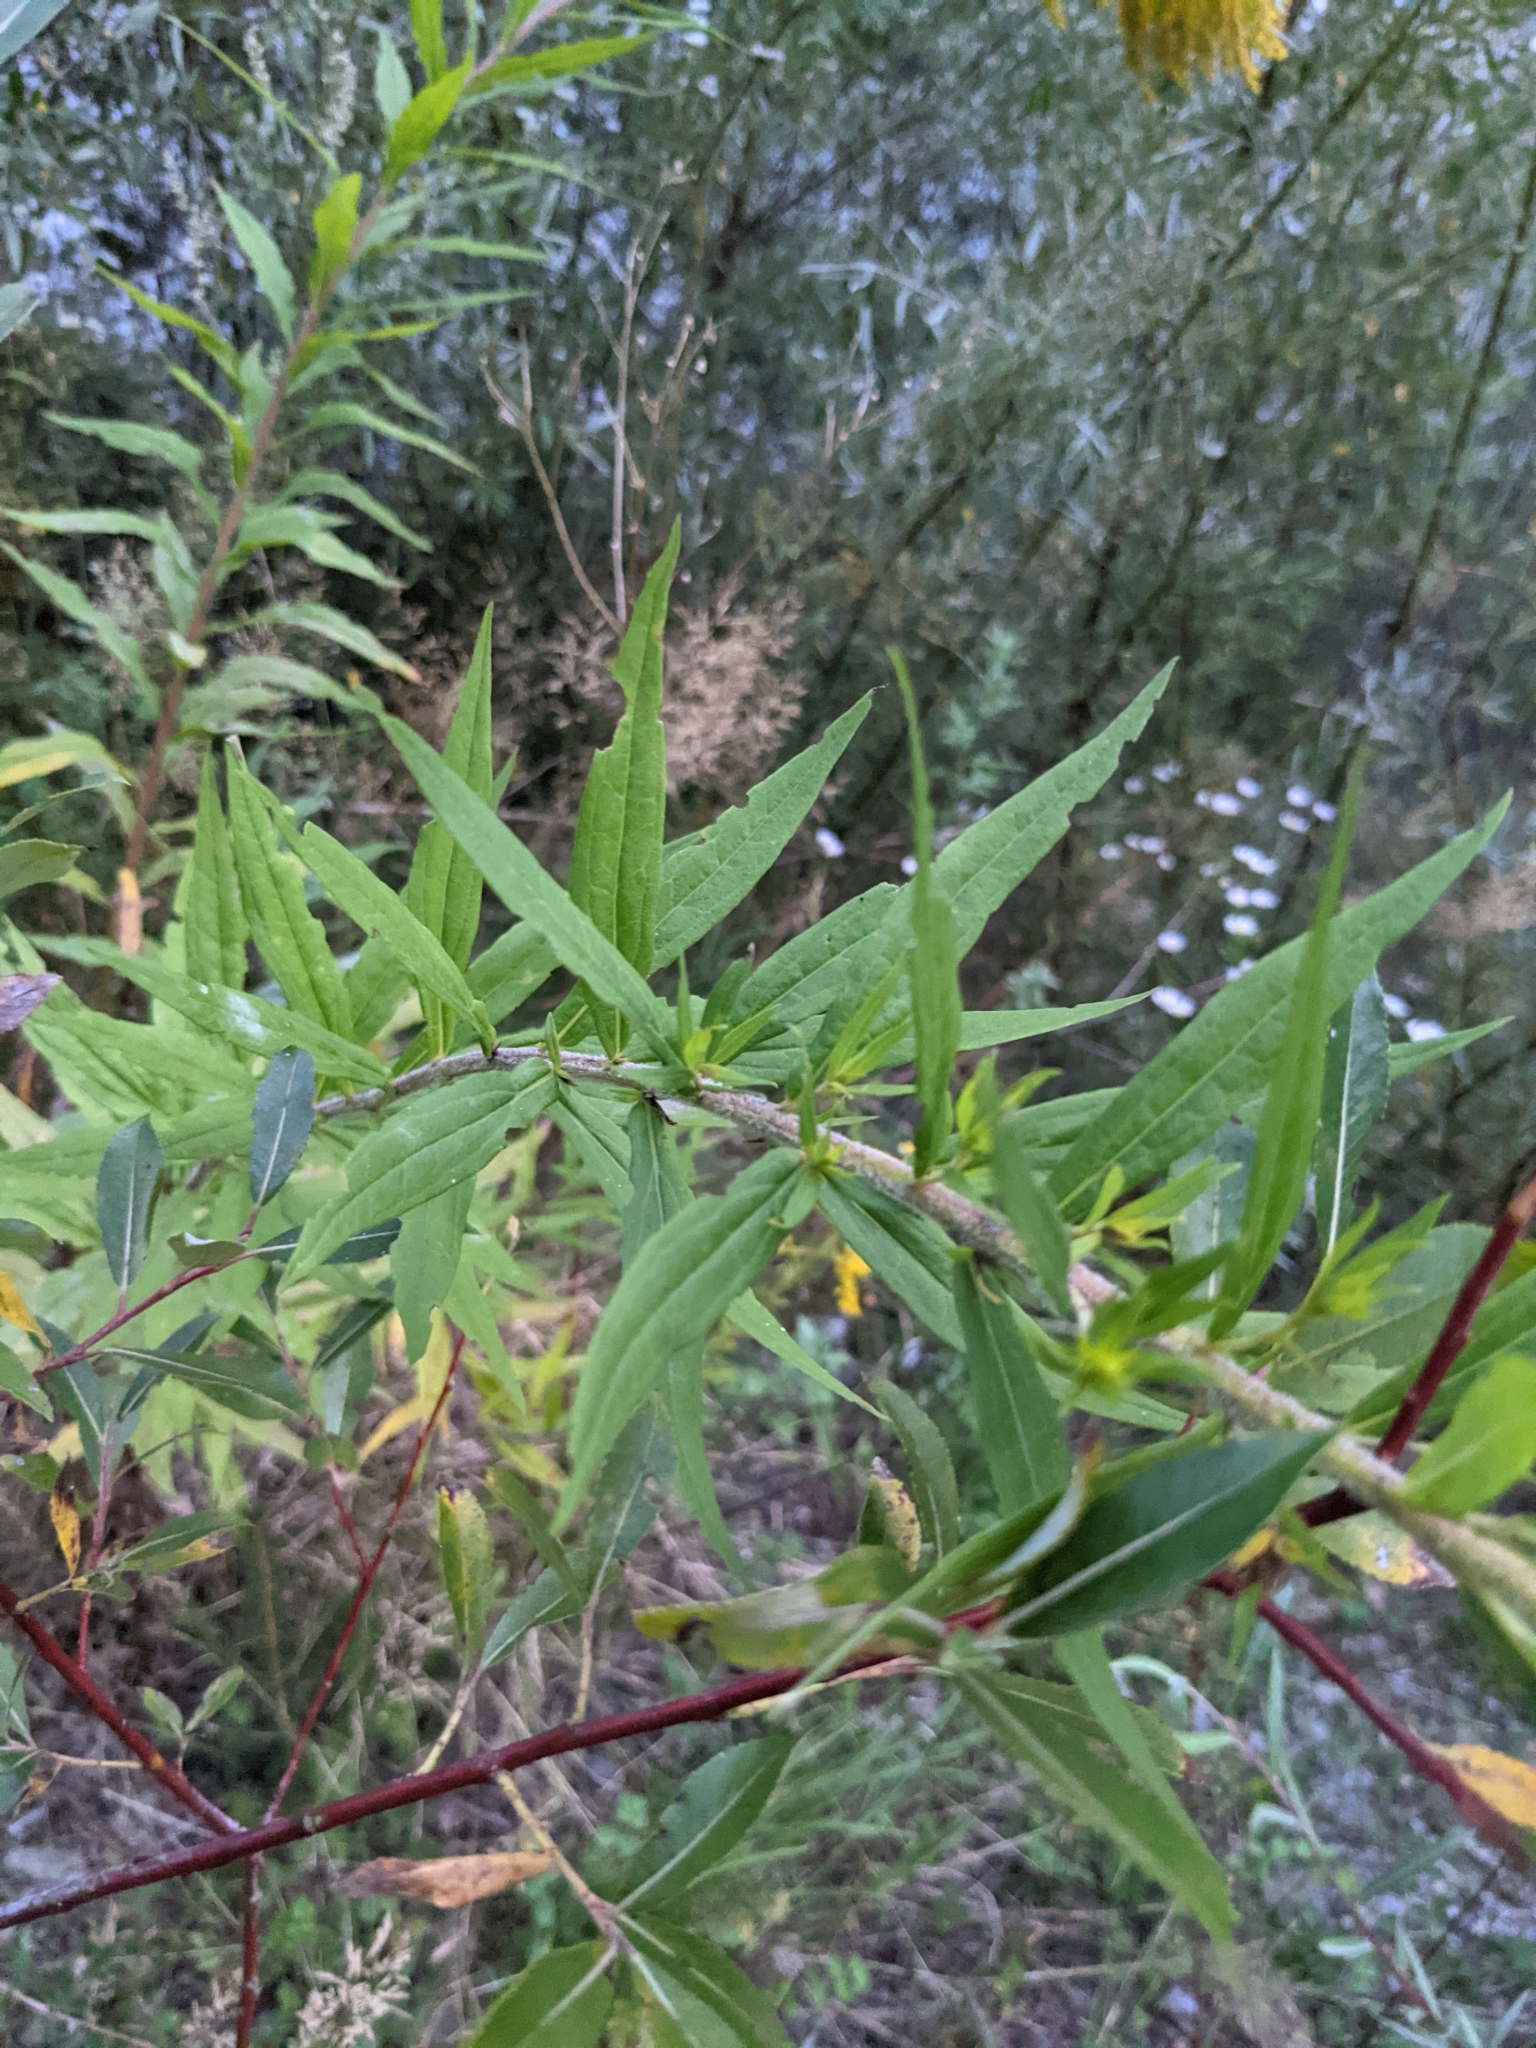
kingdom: Plantae
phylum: Tracheophyta
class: Magnoliopsida
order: Asterales
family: Asteraceae
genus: Solidago
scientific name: Solidago canadensis
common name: Canada goldenrod
